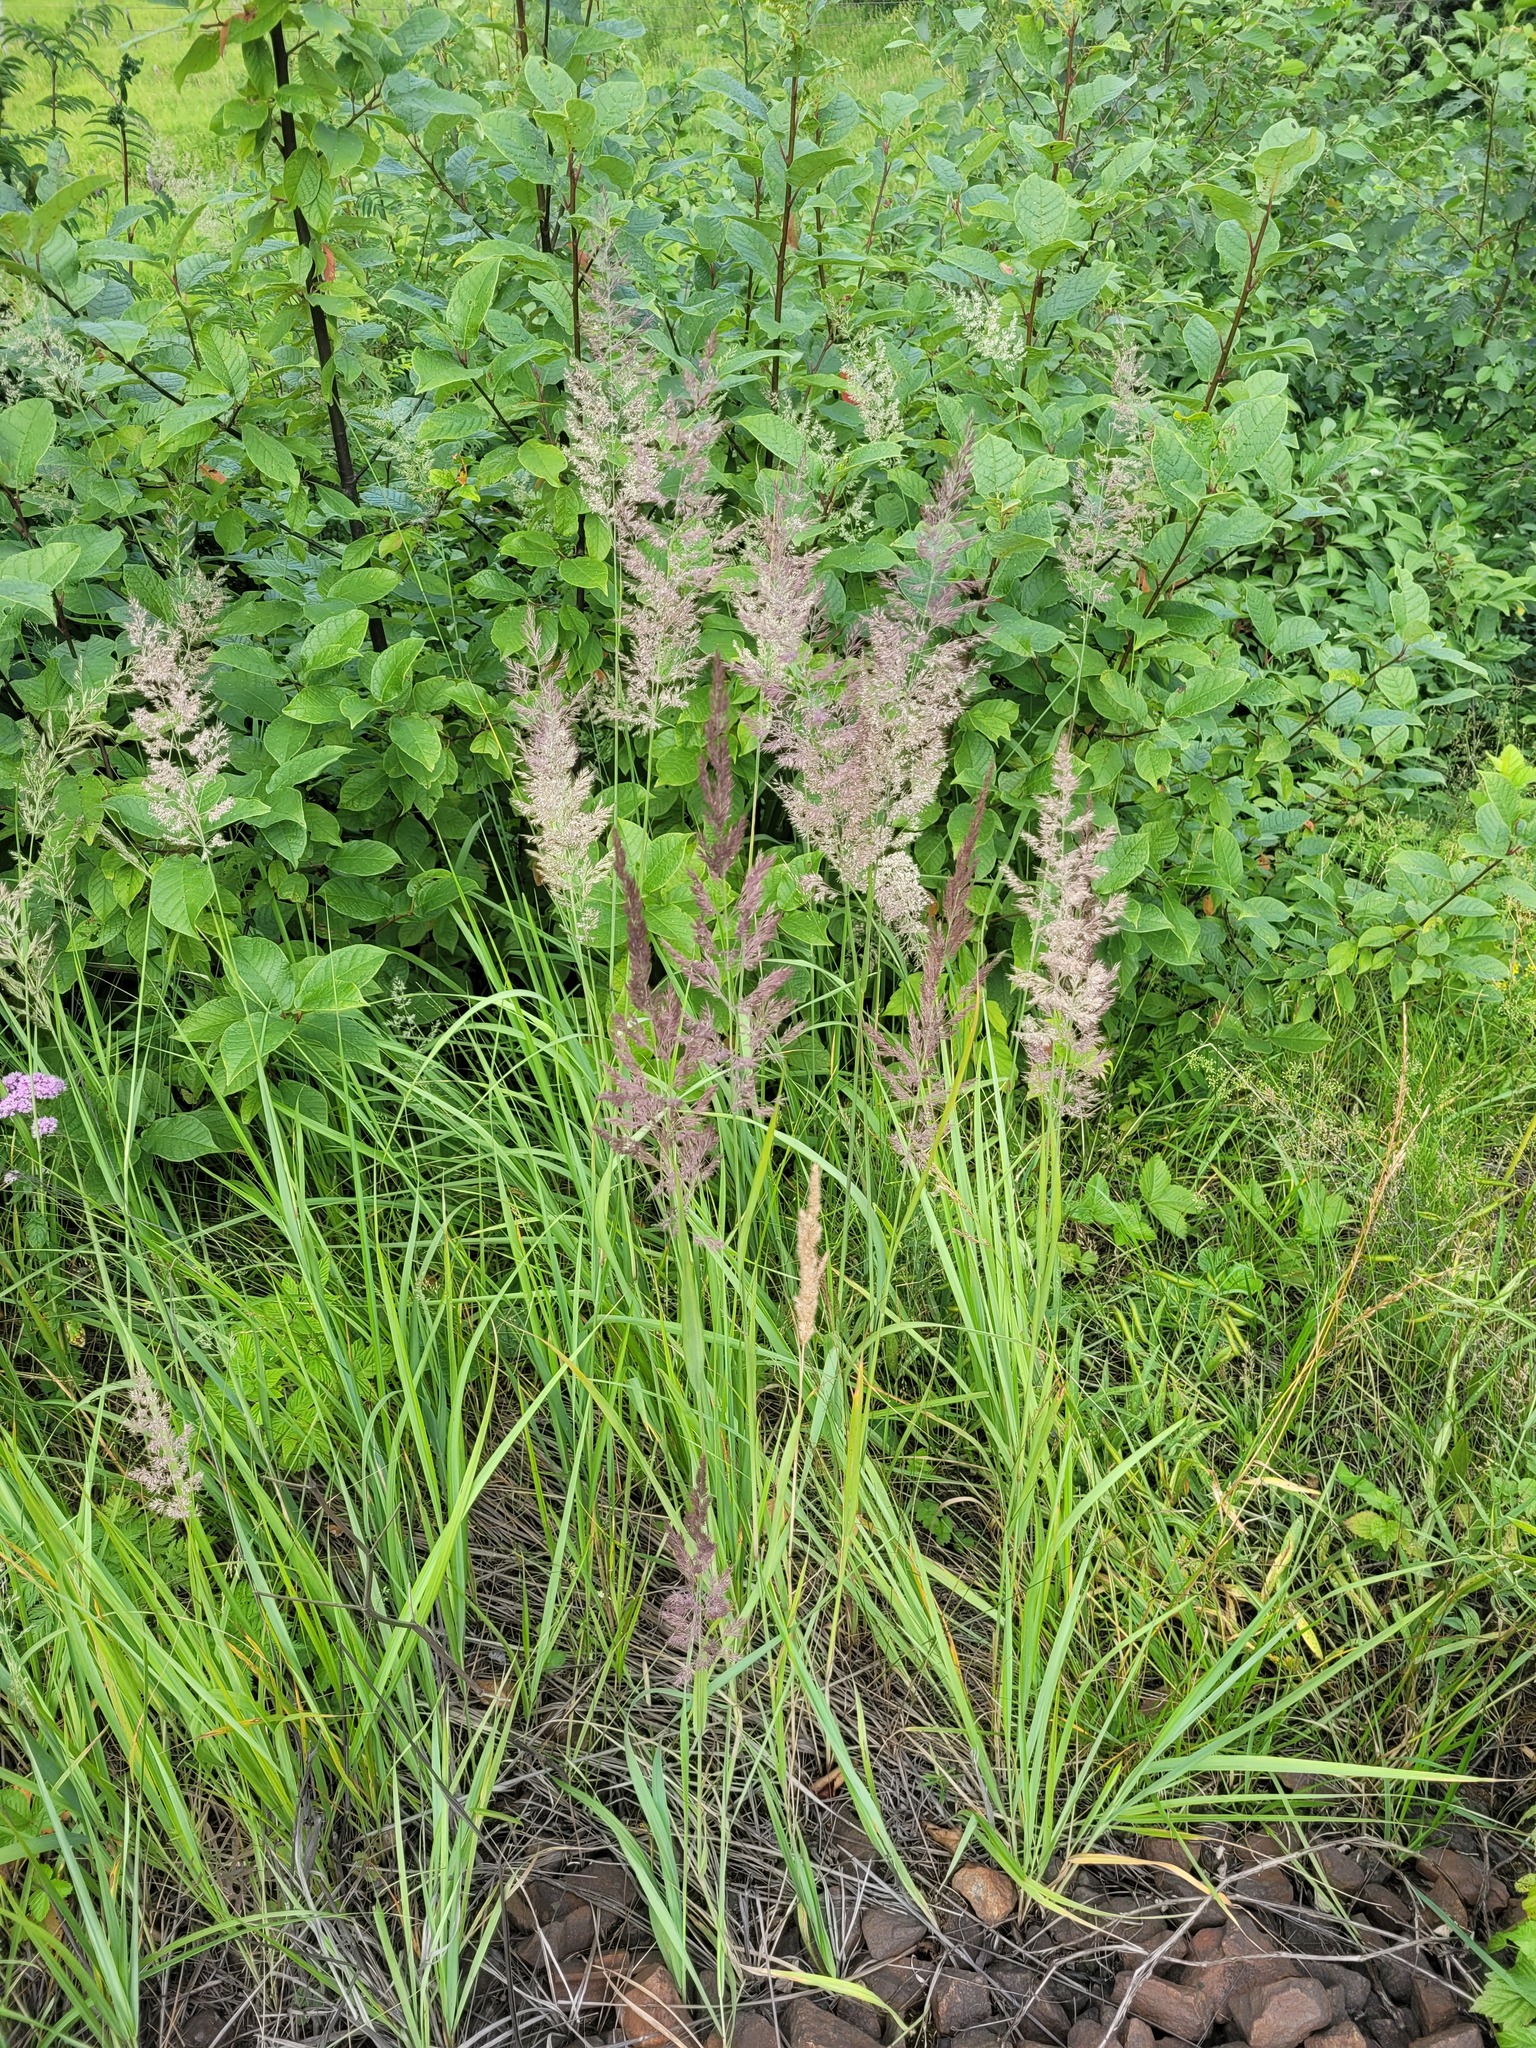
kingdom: Plantae
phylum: Tracheophyta
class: Liliopsida
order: Poales
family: Poaceae
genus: Calamagrostis
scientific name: Calamagrostis epigejos
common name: Wood small-reed
